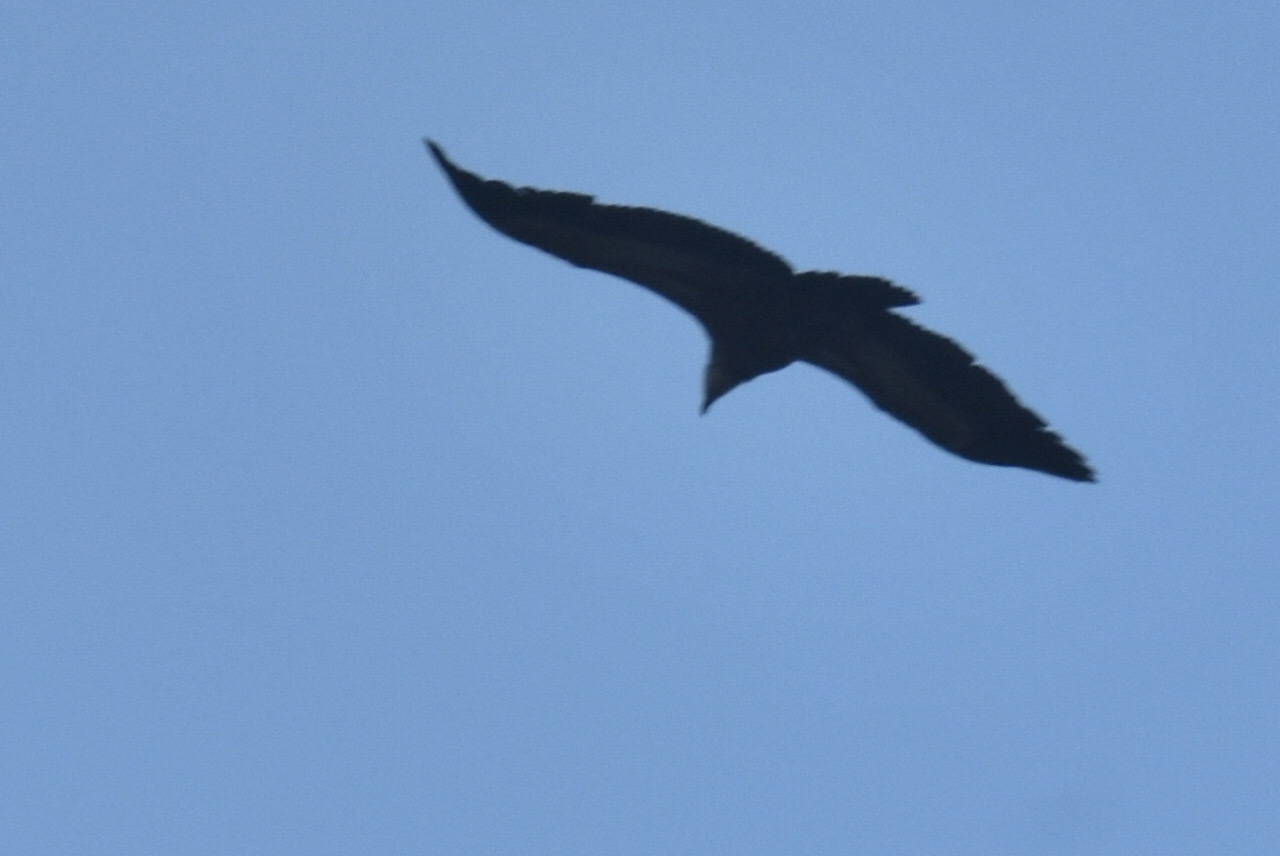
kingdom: Animalia
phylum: Chordata
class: Aves
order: Accipitriformes
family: Accipitridae
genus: Gyps
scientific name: Gyps fulvus
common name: Griffon vulture
